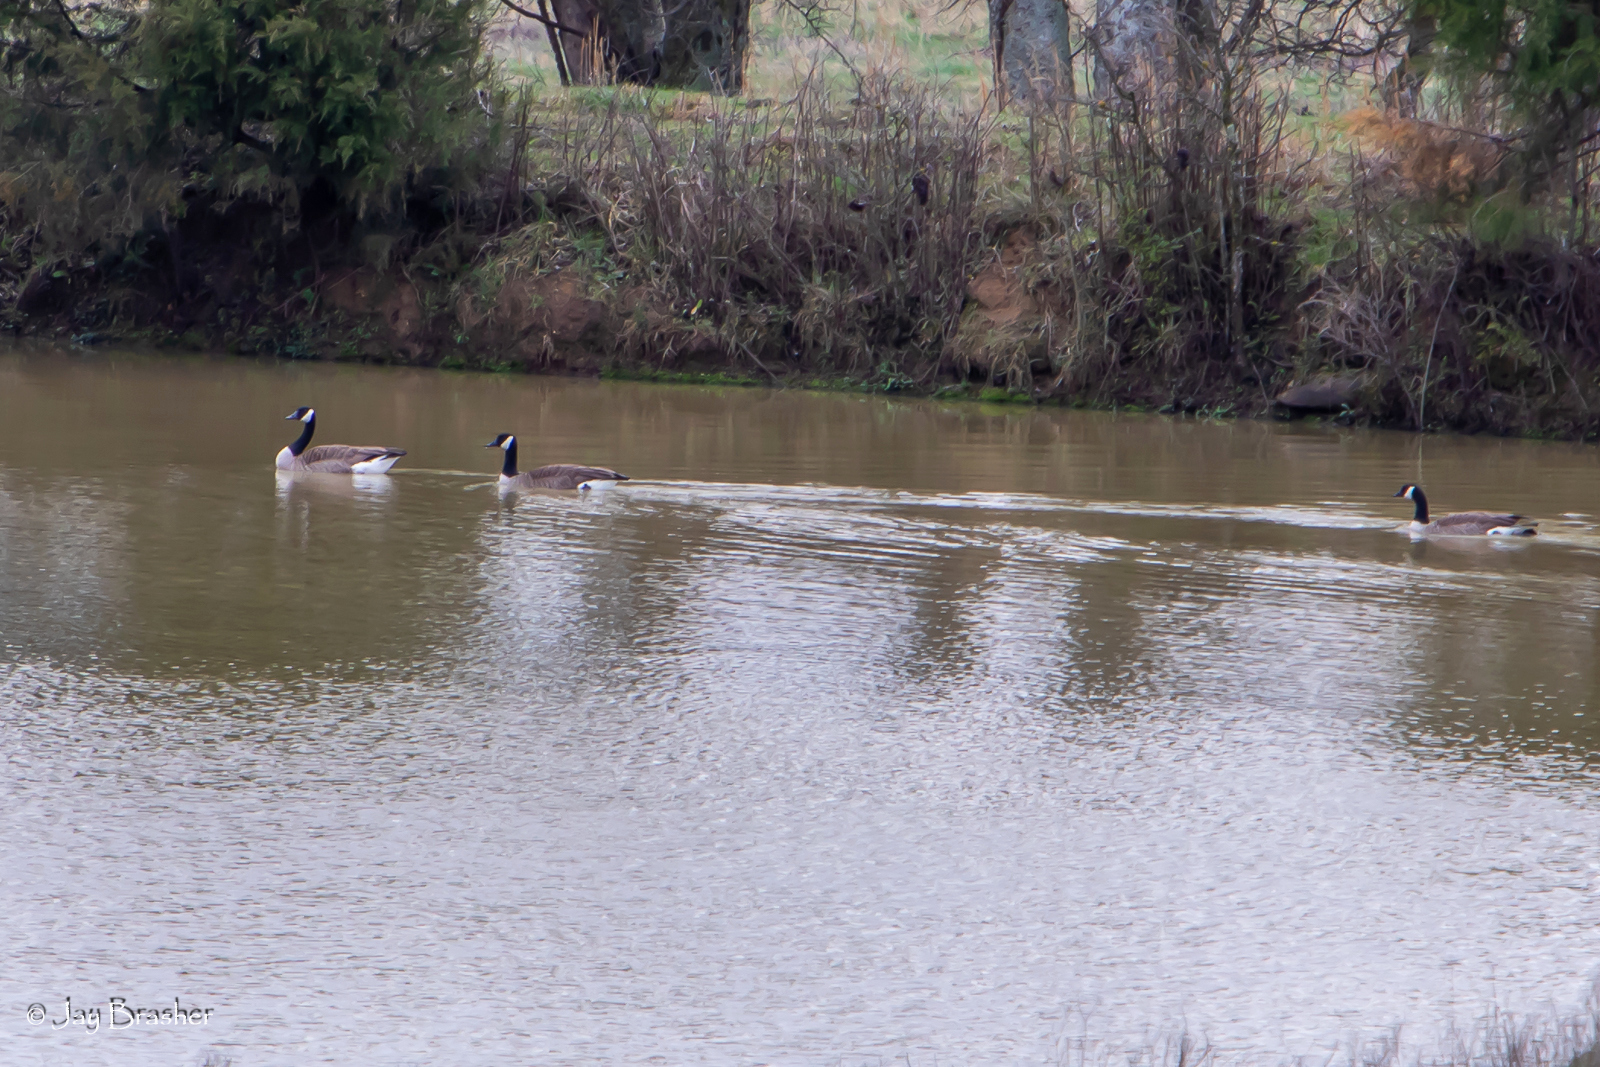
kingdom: Animalia
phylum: Chordata
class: Aves
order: Anseriformes
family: Anatidae
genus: Branta
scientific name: Branta canadensis
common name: Canada goose
